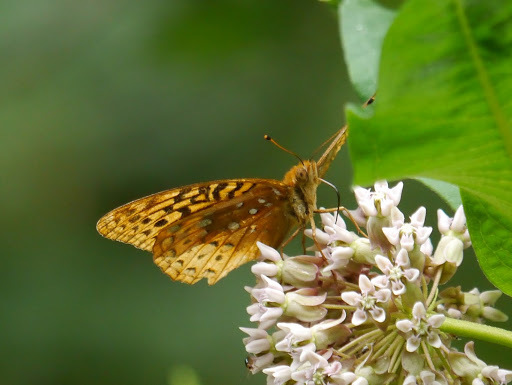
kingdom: Animalia
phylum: Arthropoda
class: Insecta
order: Lepidoptera
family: Nymphalidae
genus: Speyeria
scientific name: Speyeria cybele
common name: Great spangled fritillary
